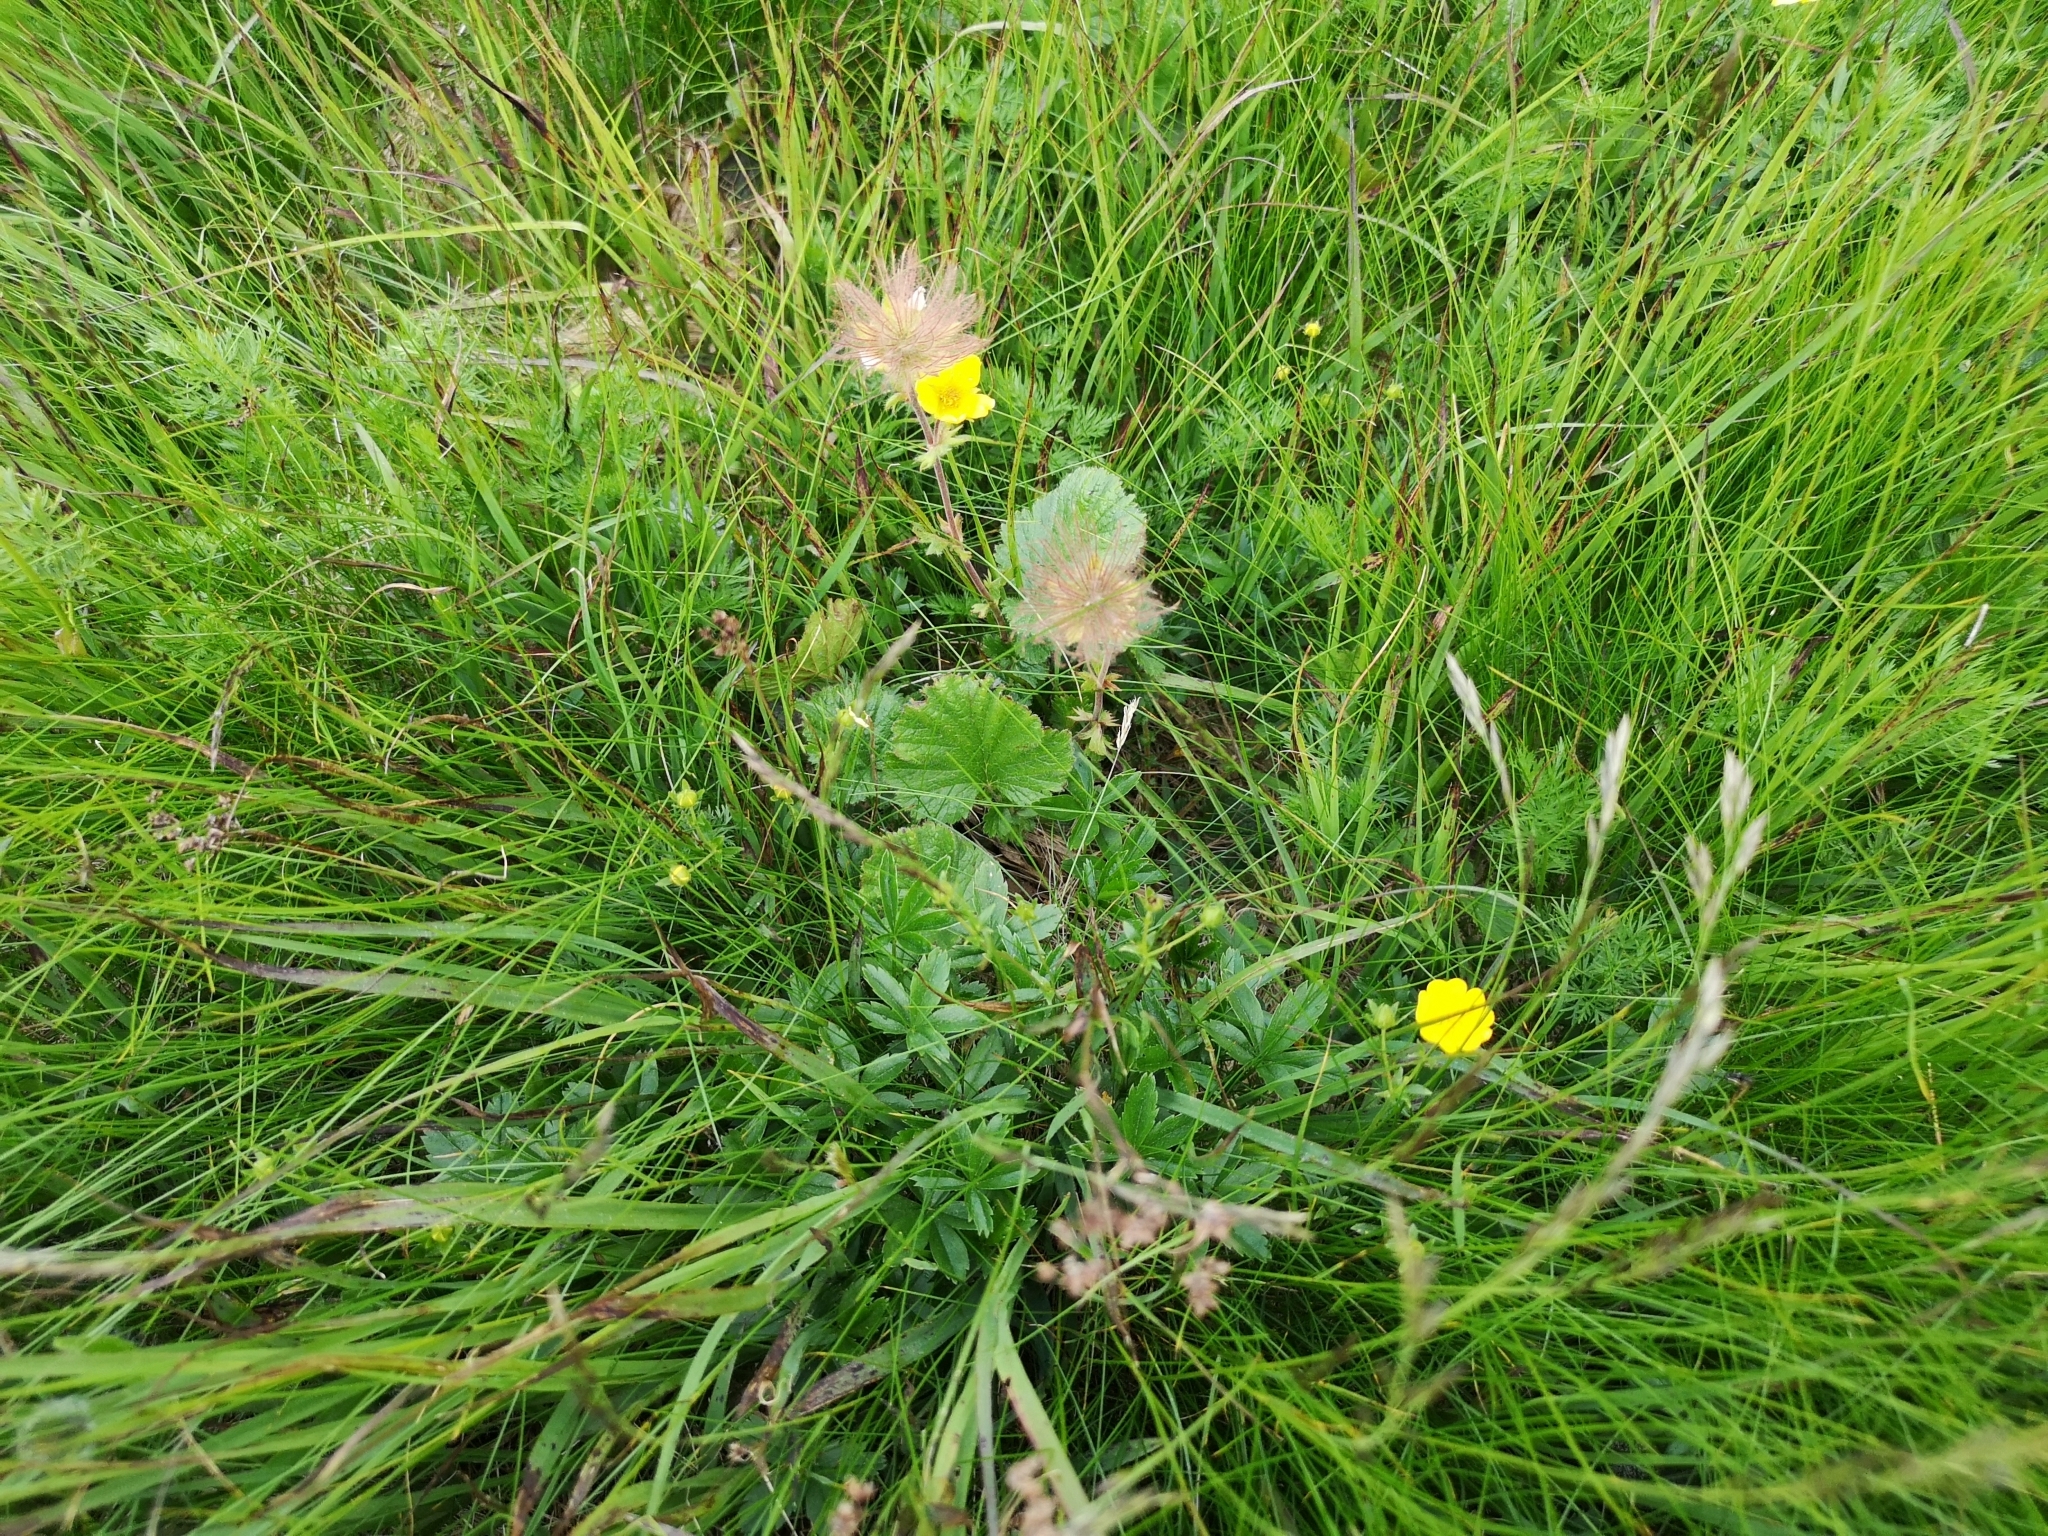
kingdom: Plantae
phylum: Tracheophyta
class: Magnoliopsida
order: Rosales
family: Rosaceae
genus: Geum
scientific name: Geum montanum
